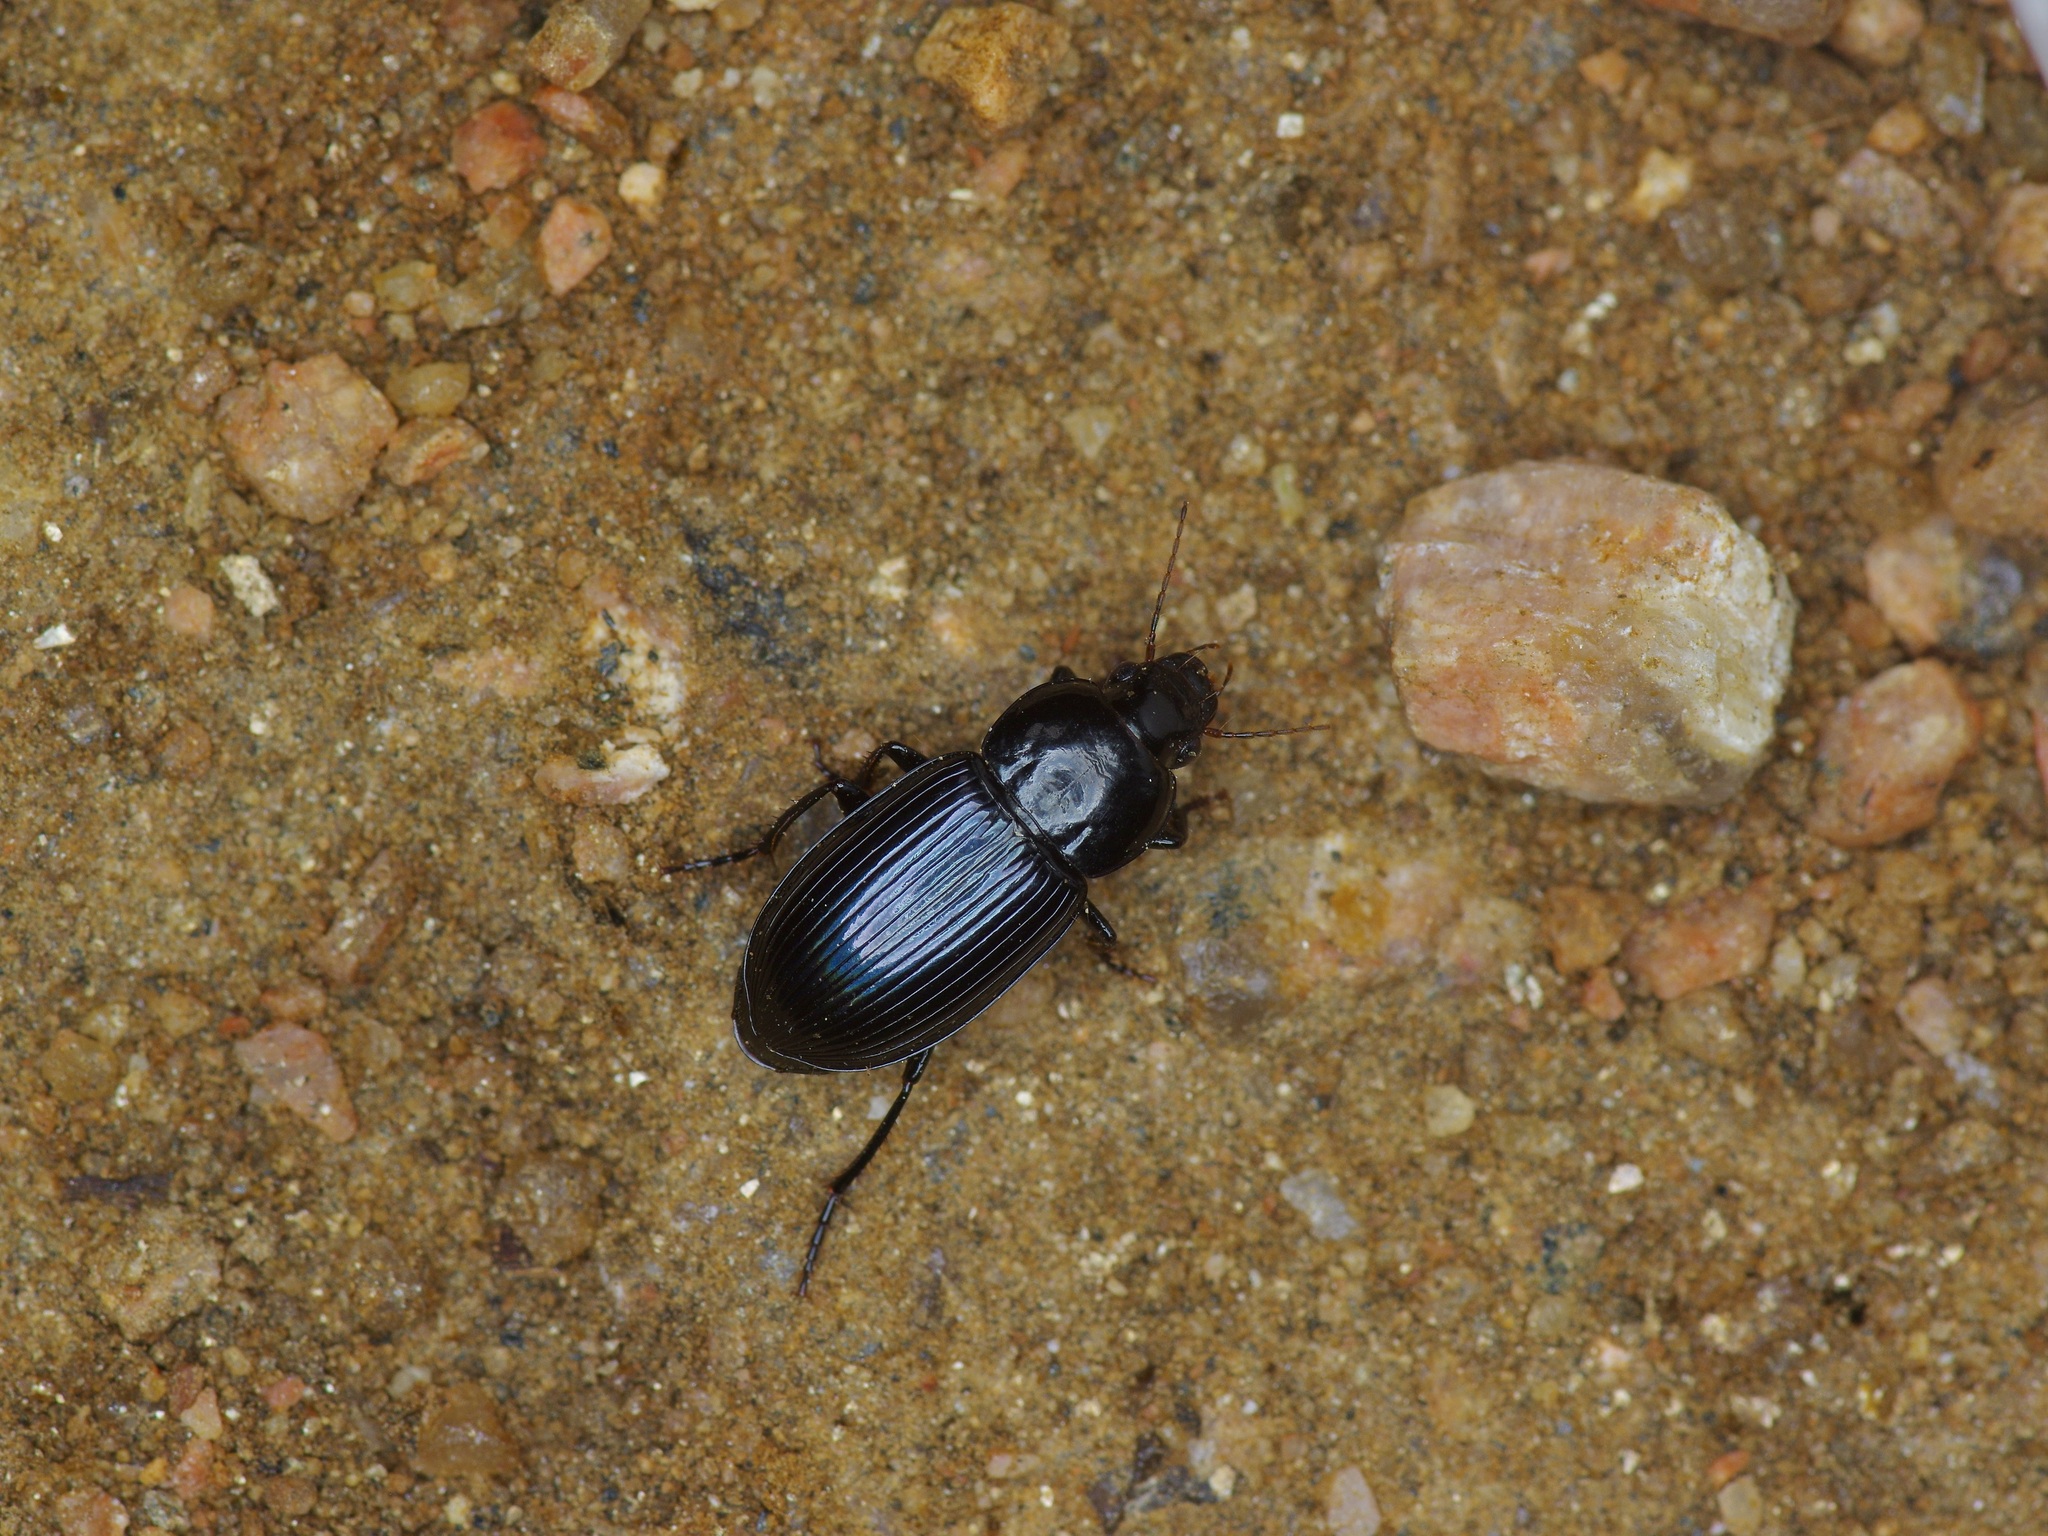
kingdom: Animalia
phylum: Arthropoda
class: Insecta
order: Coleoptera
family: Carabidae
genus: Aztecarpalus
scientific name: Aztecarpalus schaefferi
